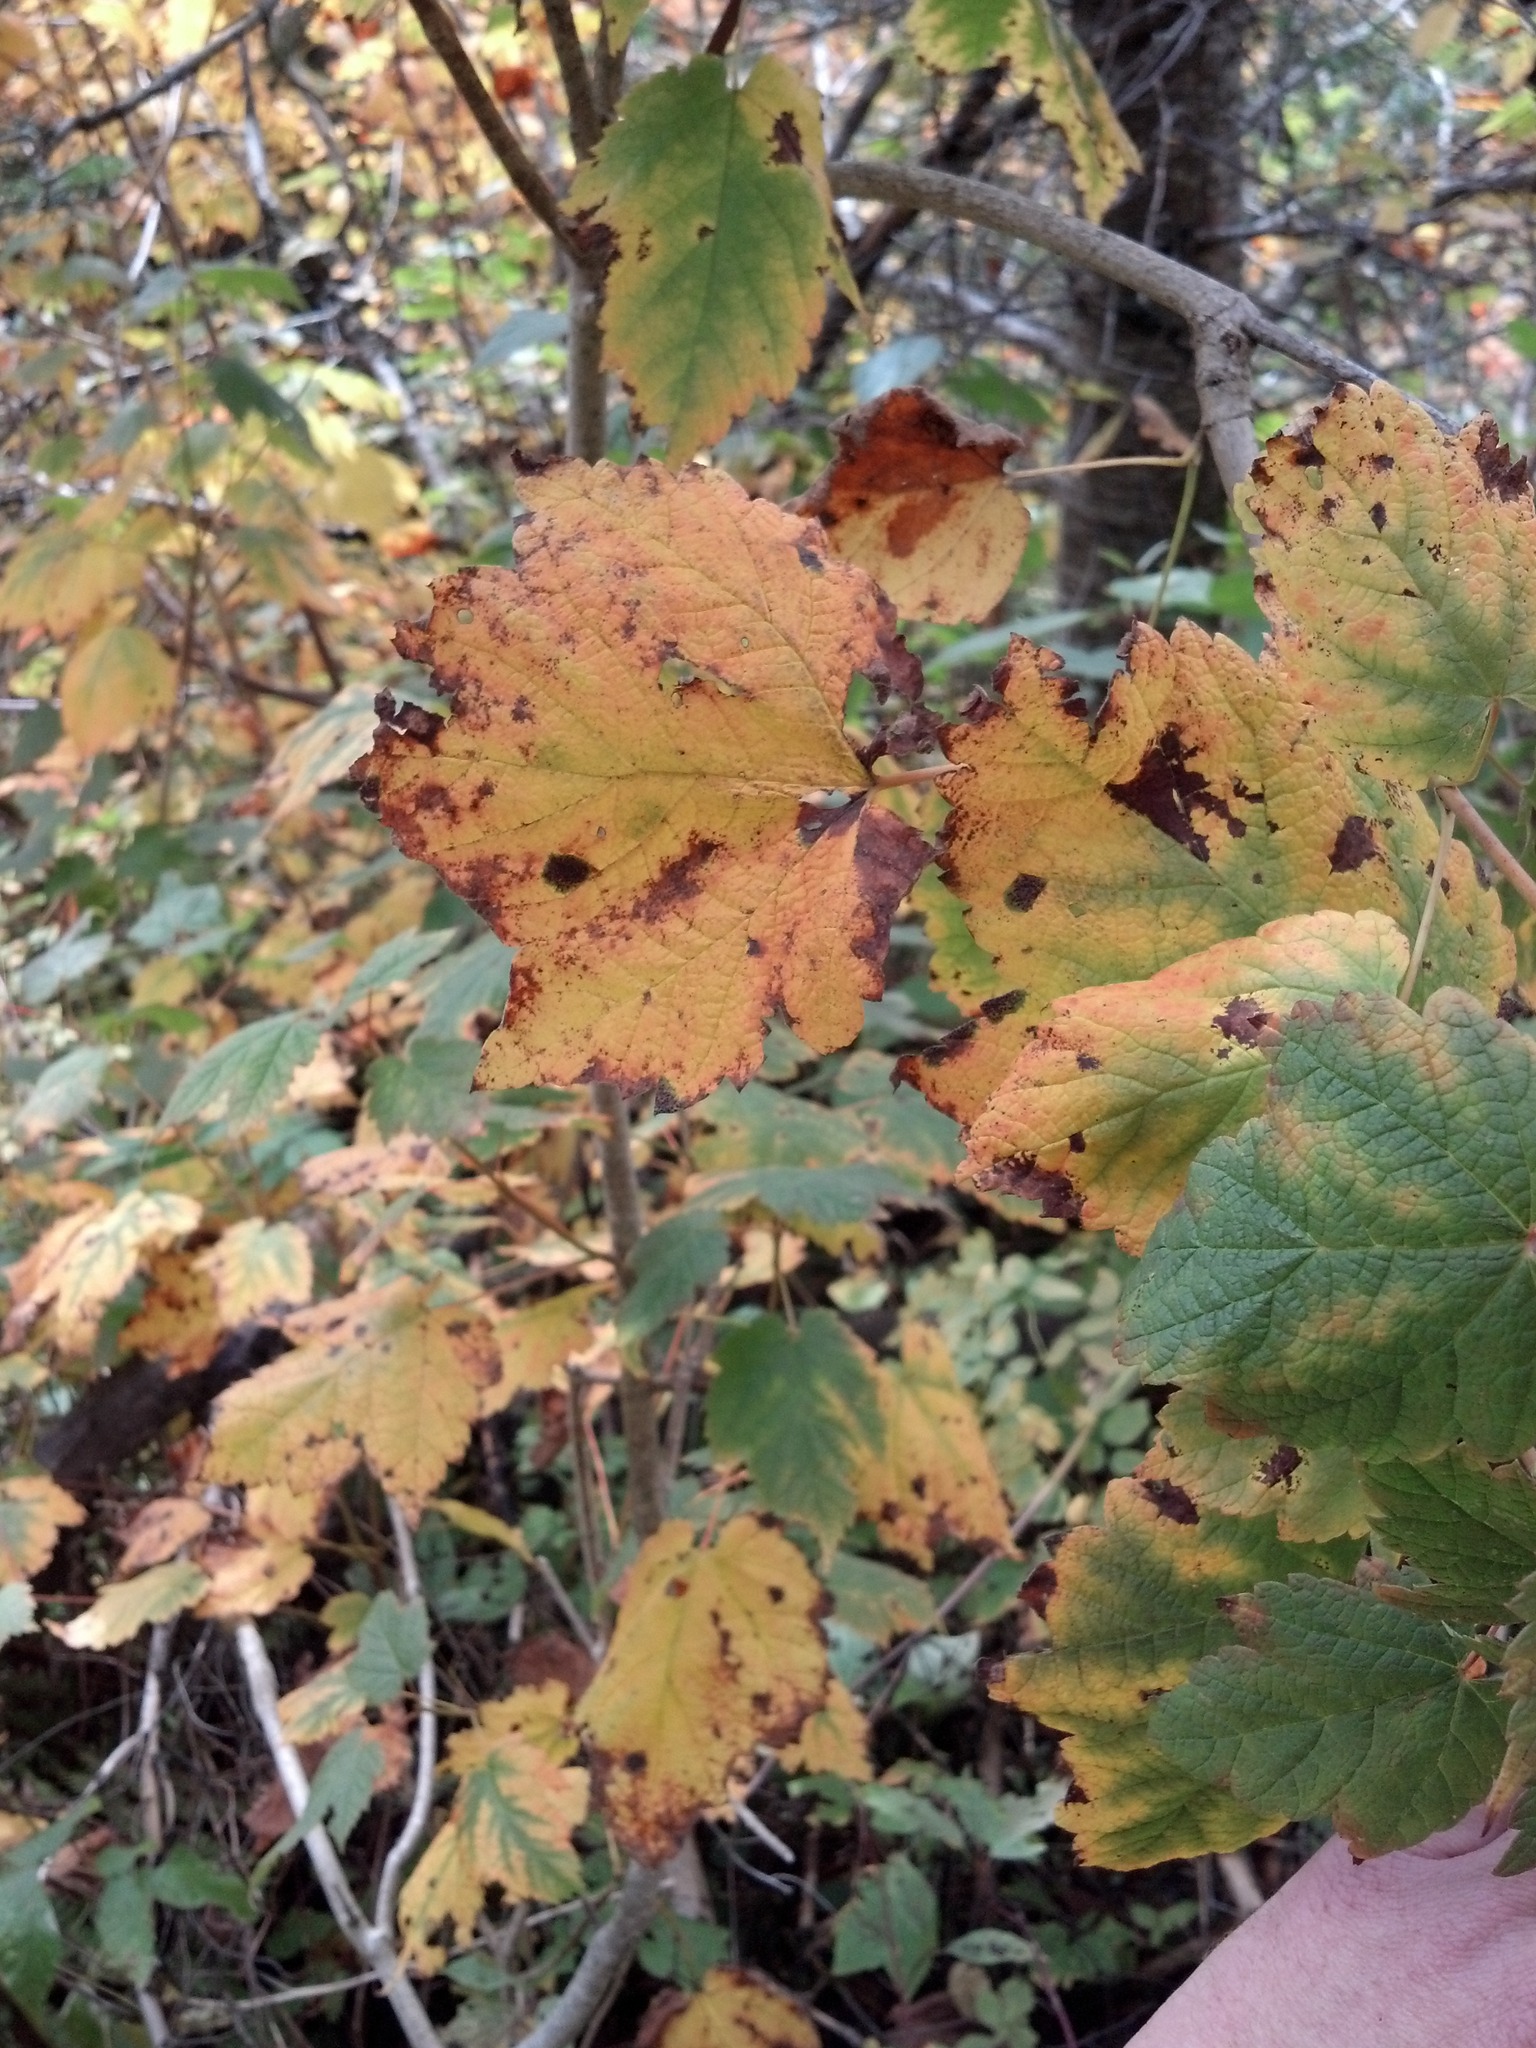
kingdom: Plantae
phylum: Tracheophyta
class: Magnoliopsida
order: Sapindales
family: Sapindaceae
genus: Acer
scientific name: Acer spicatum
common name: Mountain maple
